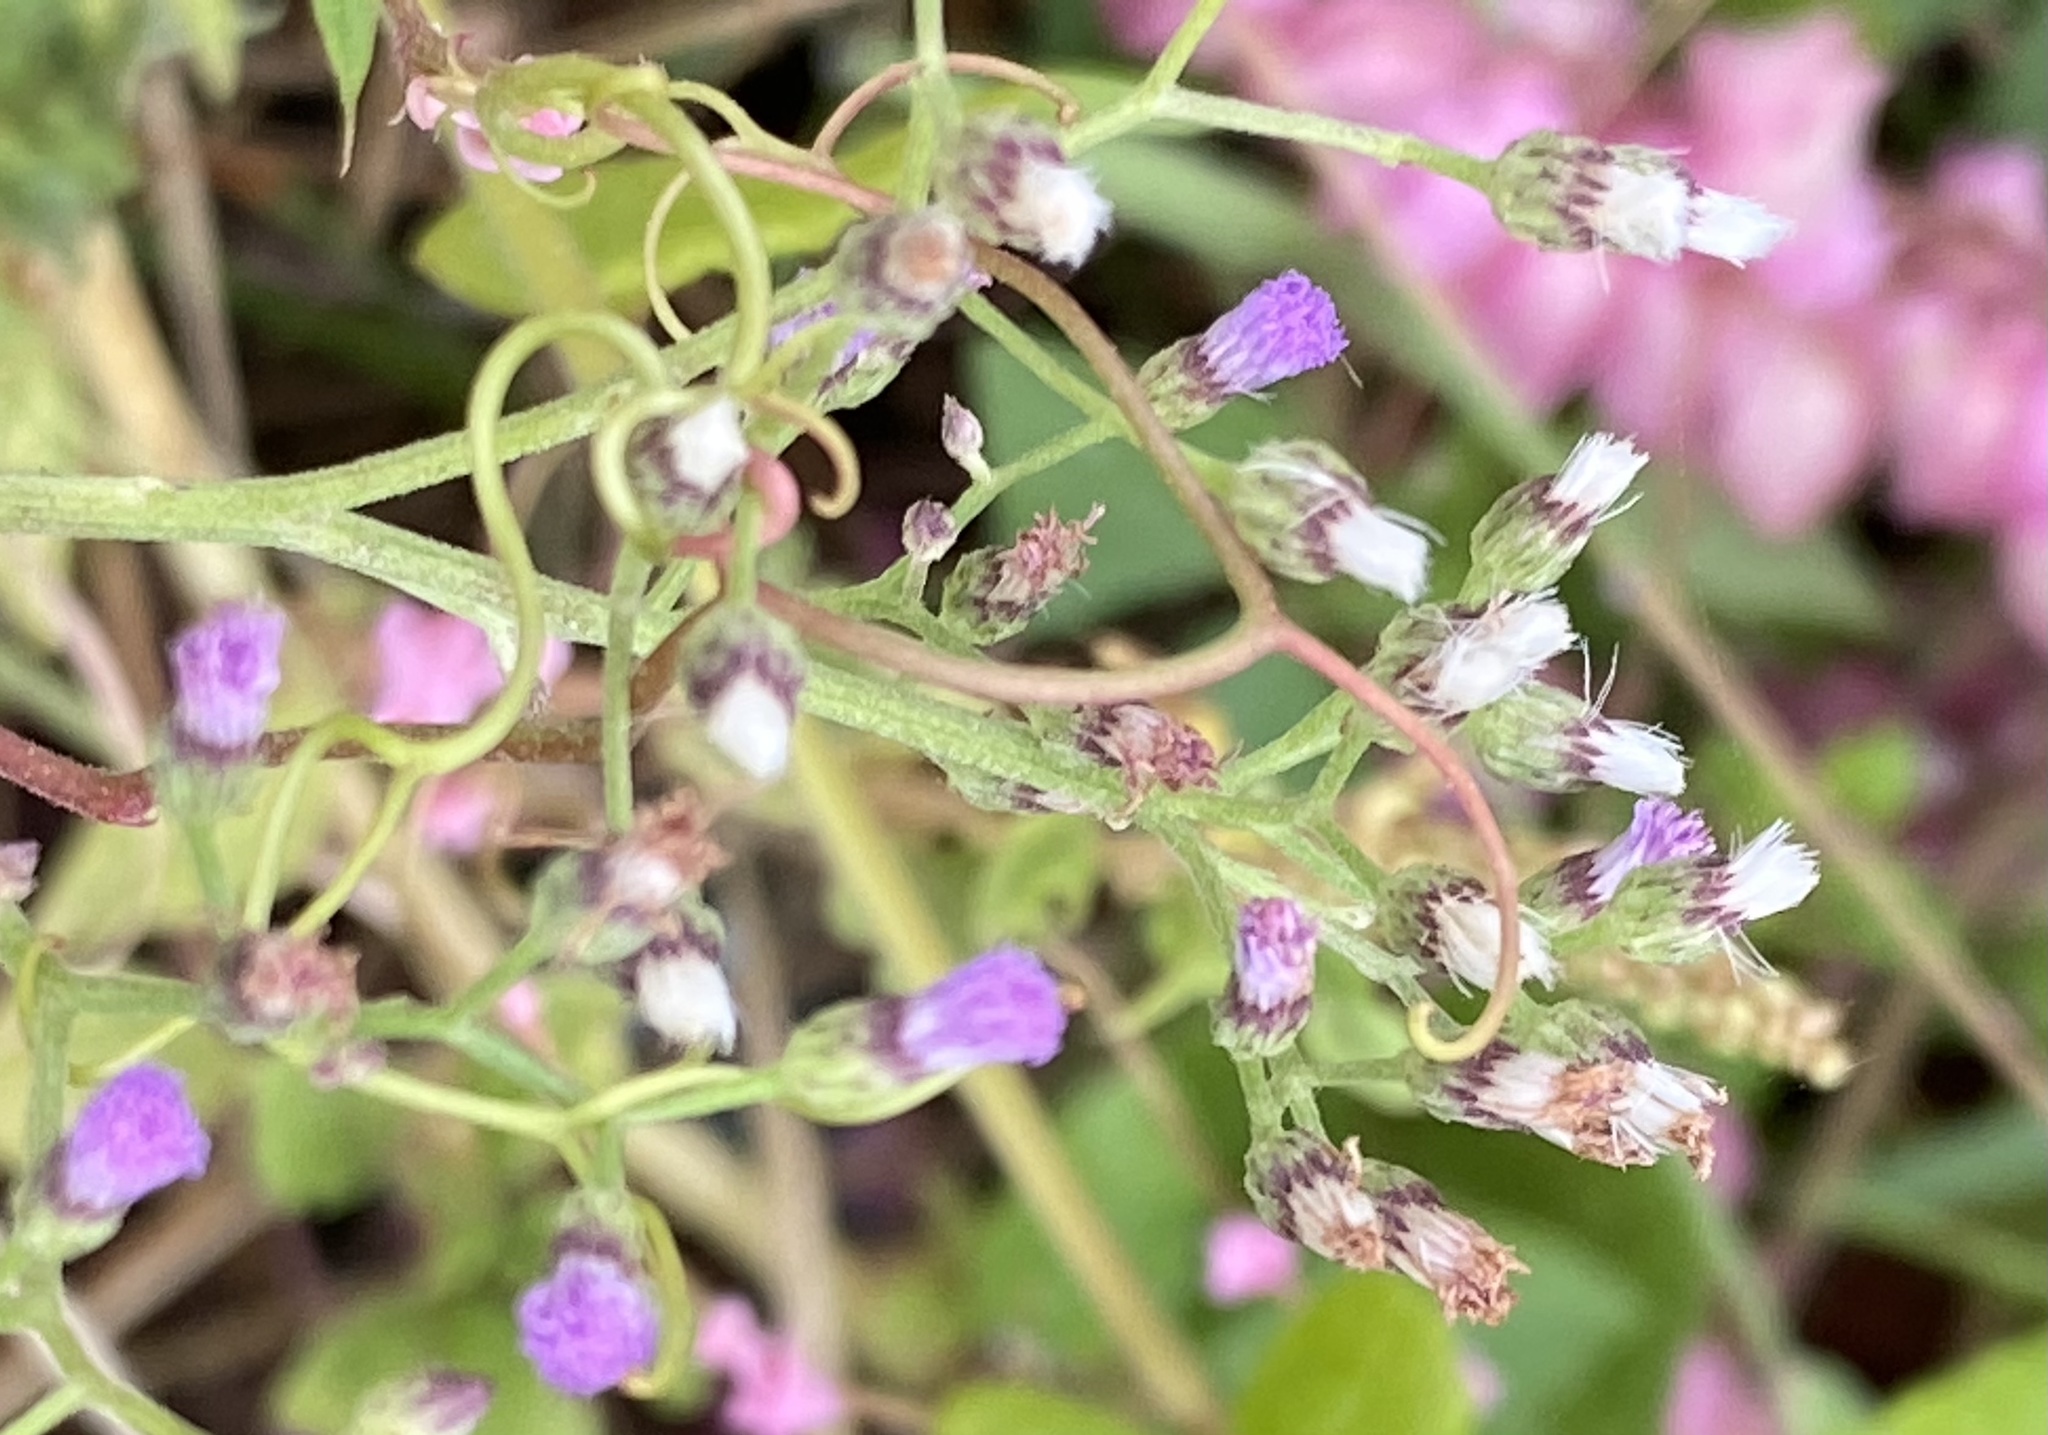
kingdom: Plantae
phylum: Tracheophyta
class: Magnoliopsida
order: Asterales
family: Asteraceae
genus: Cyanthillium
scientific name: Cyanthillium cinereum
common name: Little ironweed
